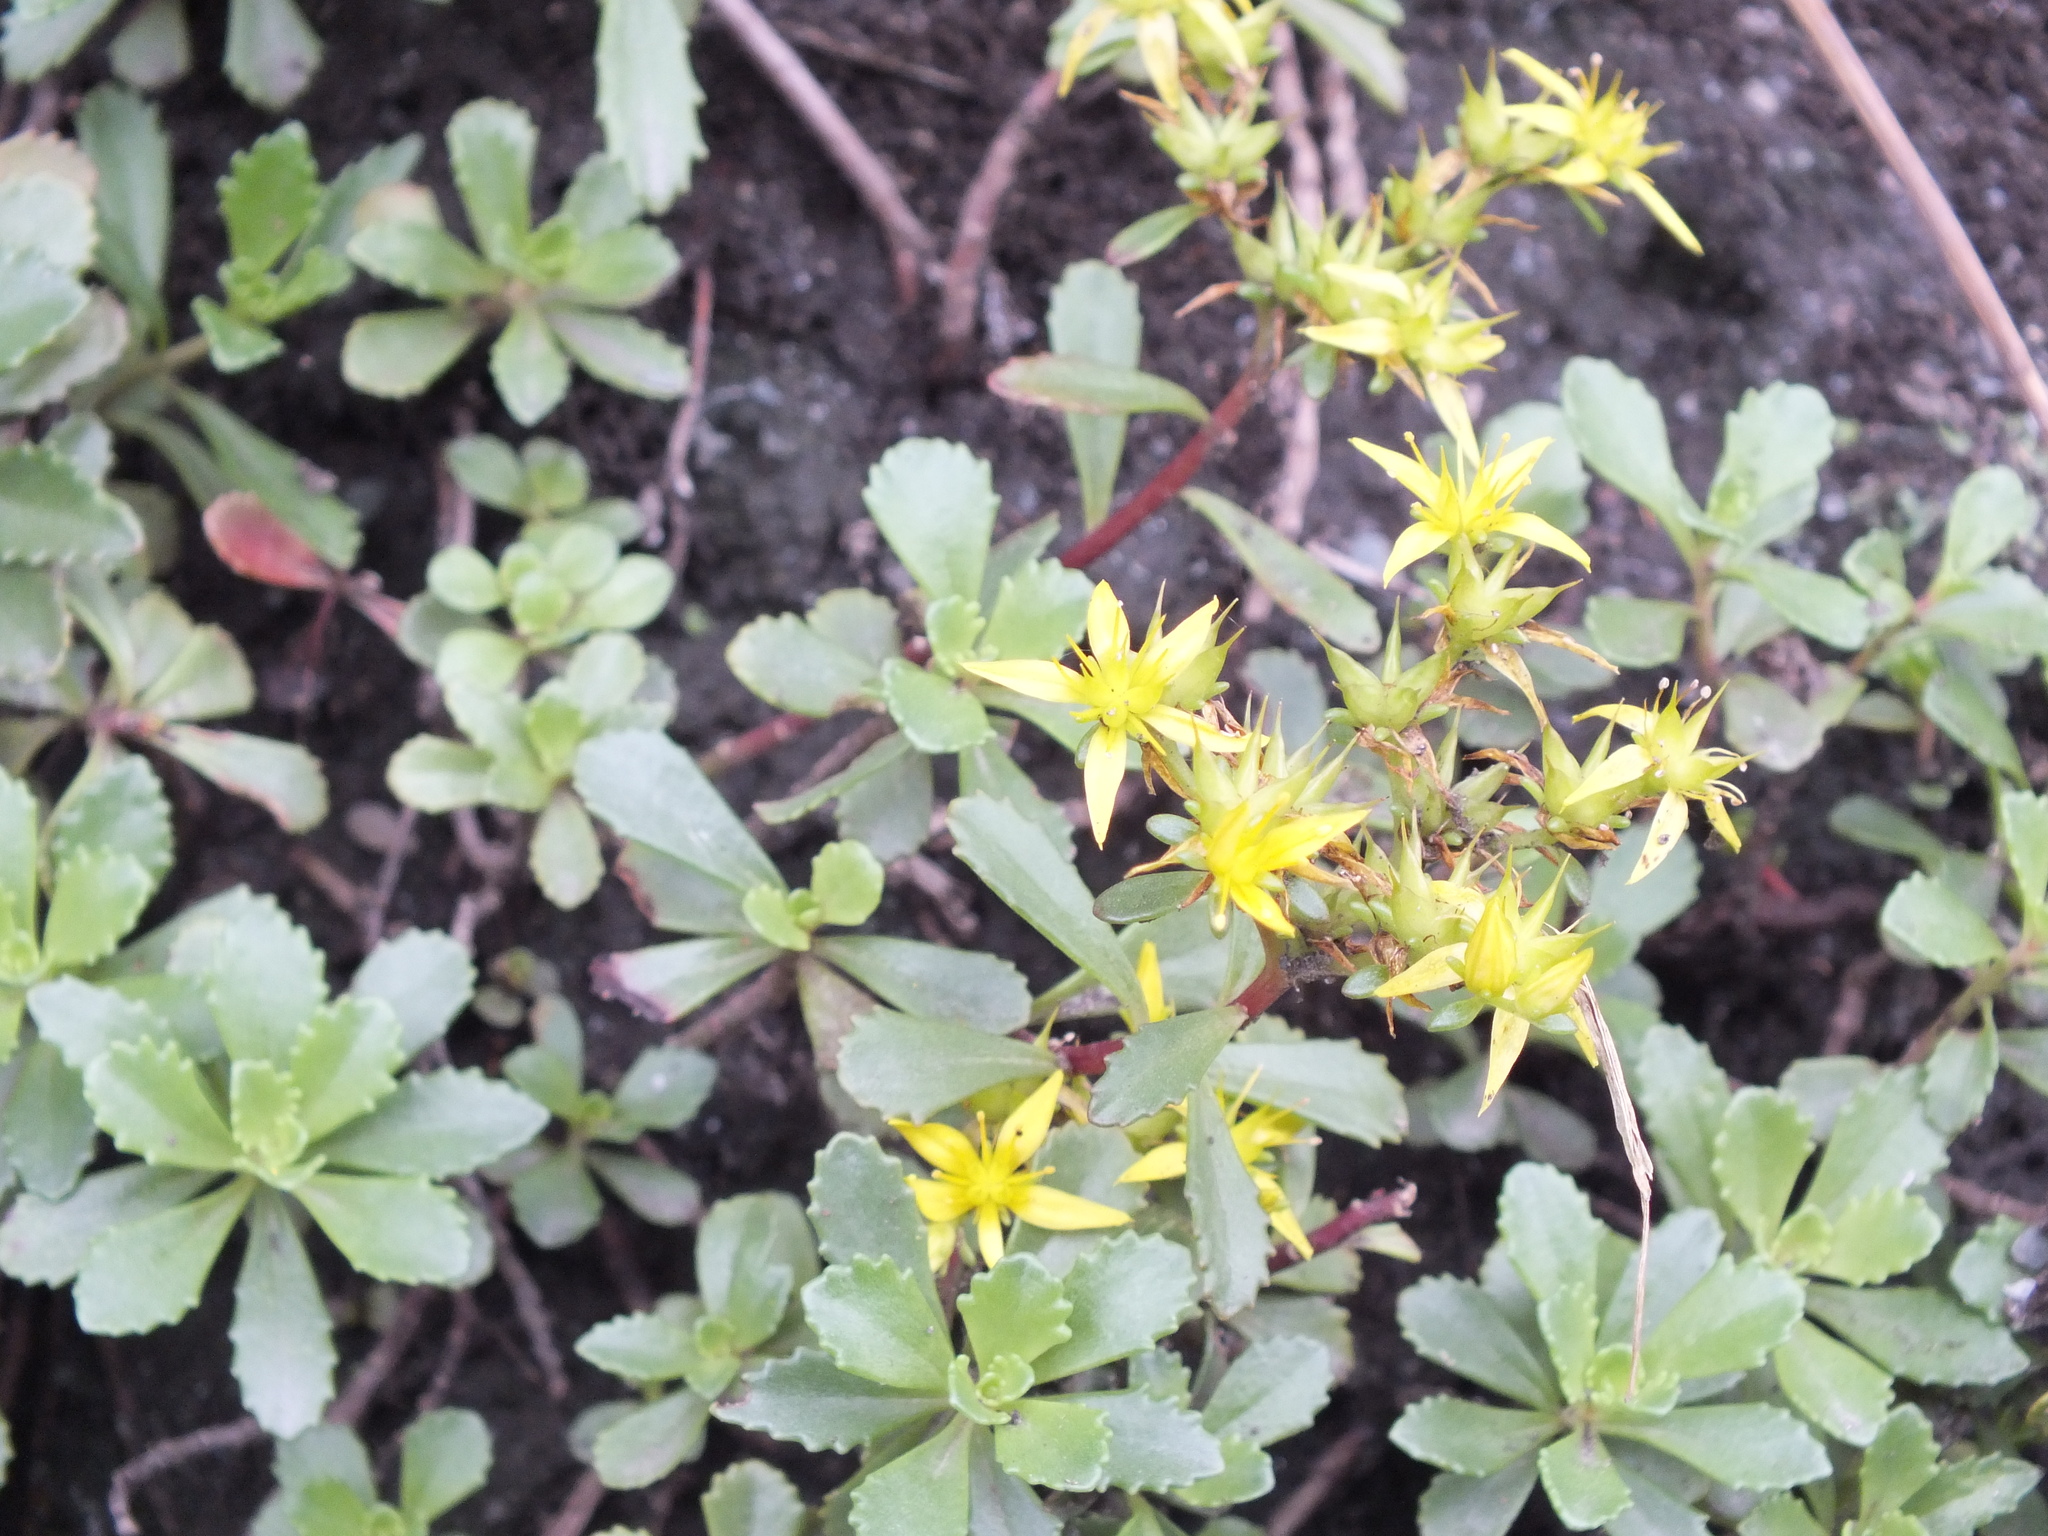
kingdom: Plantae
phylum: Tracheophyta
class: Magnoliopsida
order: Saxifragales
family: Crassulaceae
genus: Phedimus
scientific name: Phedimus hybridus
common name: Hybrid stonecrop
